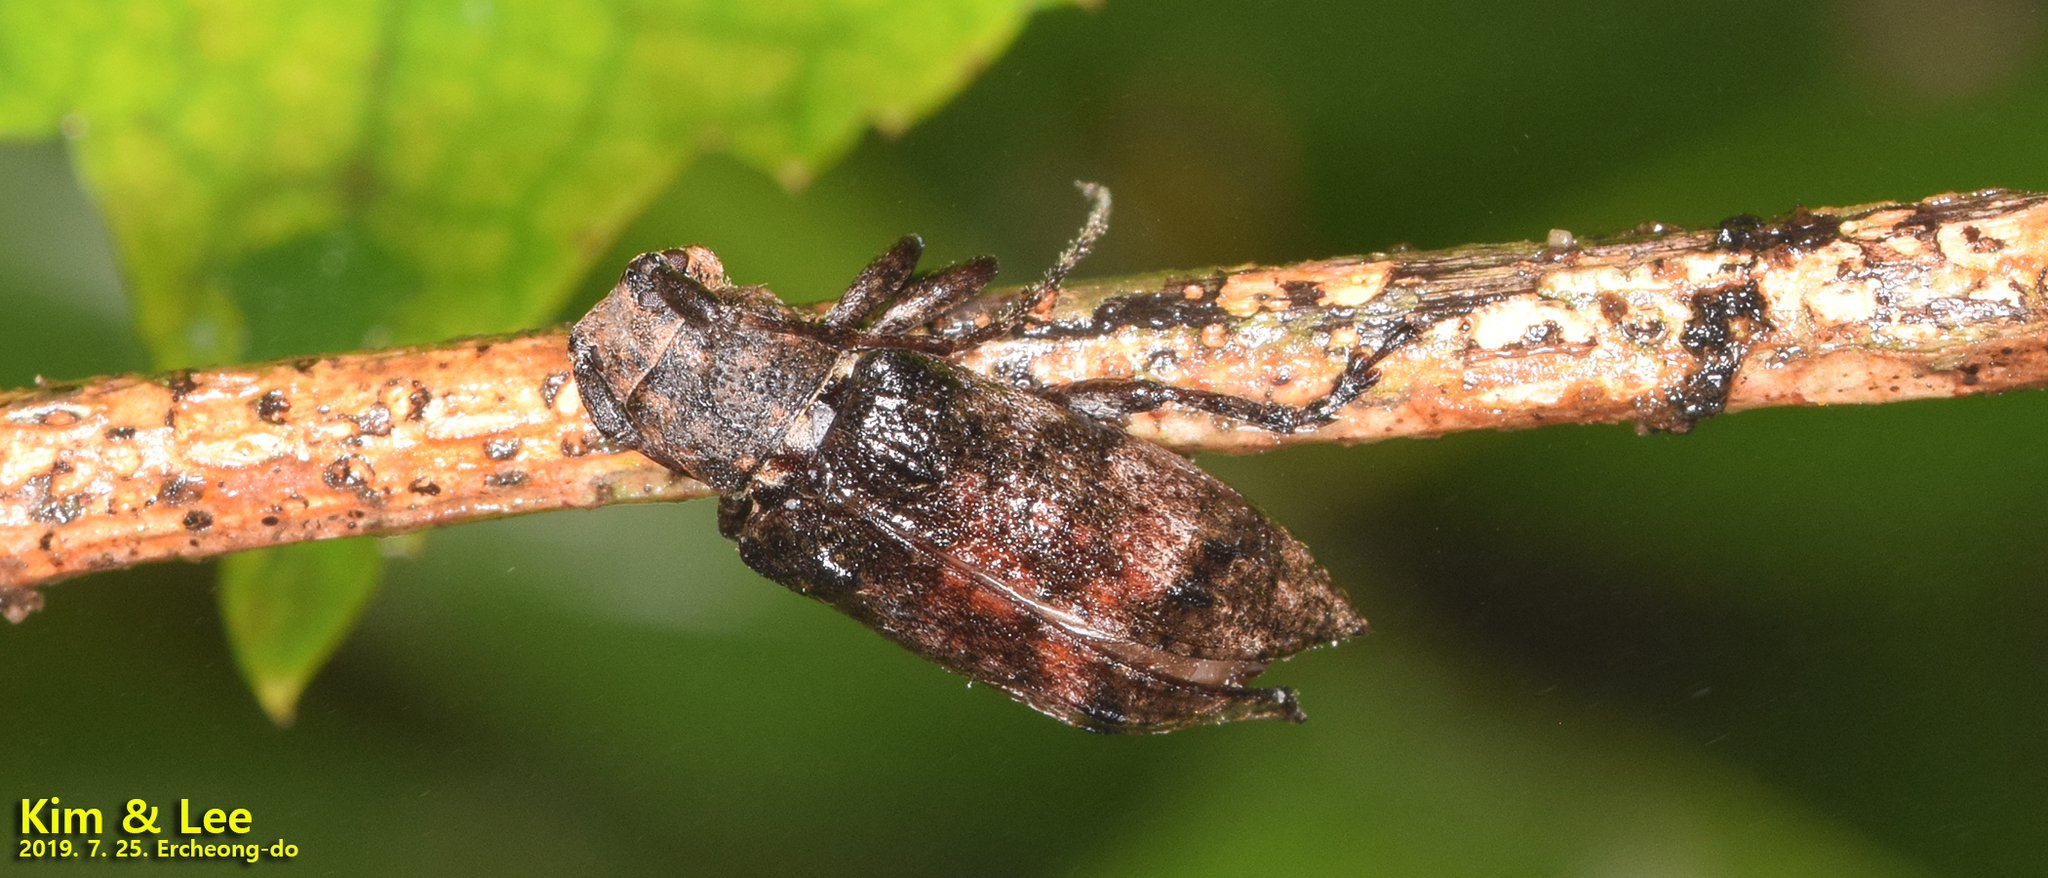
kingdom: Animalia
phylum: Arthropoda
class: Insecta
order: Coleoptera
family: Cerambycidae
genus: Pterolophia
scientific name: Pterolophia caudata
